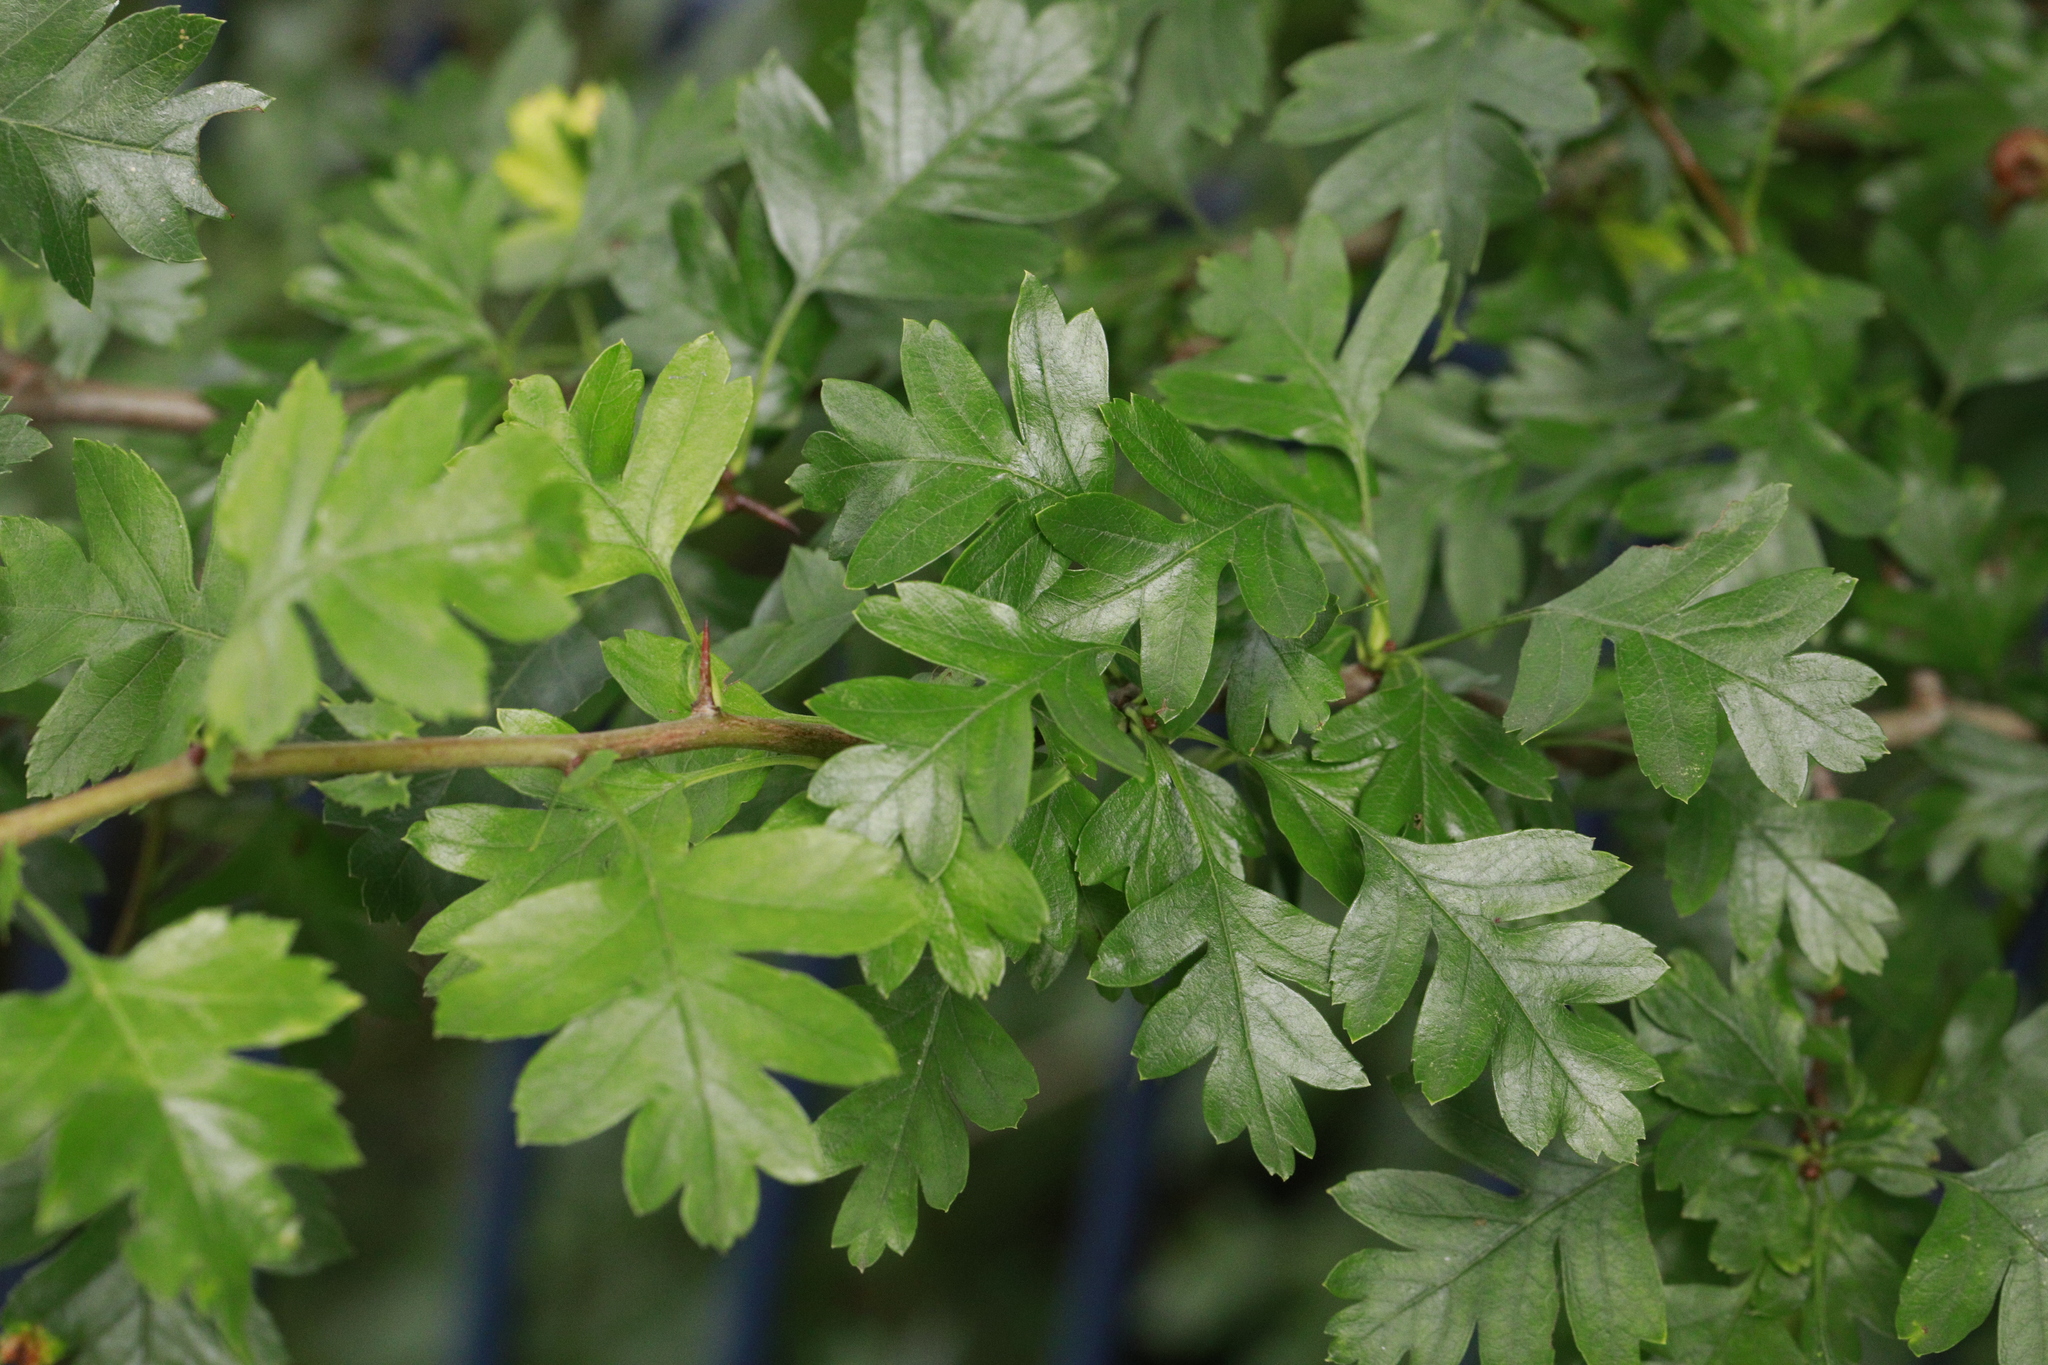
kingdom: Plantae
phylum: Tracheophyta
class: Magnoliopsida
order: Rosales
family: Rosaceae
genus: Crataegus
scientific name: Crataegus monogyna
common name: Hawthorn
